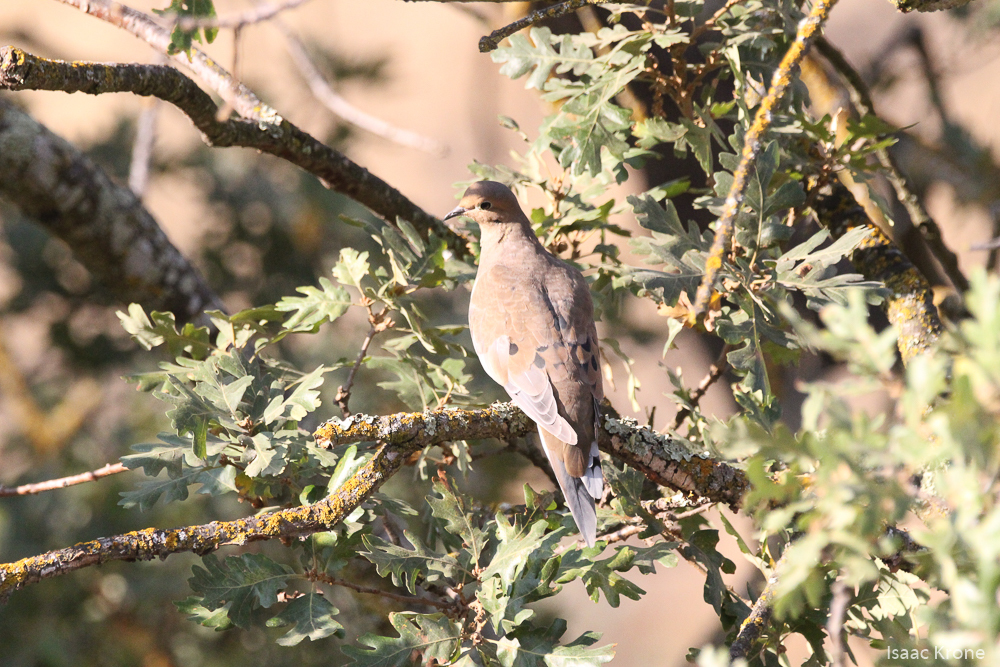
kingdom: Animalia
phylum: Chordata
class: Aves
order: Columbiformes
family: Columbidae
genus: Zenaida
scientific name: Zenaida macroura
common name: Mourning dove
